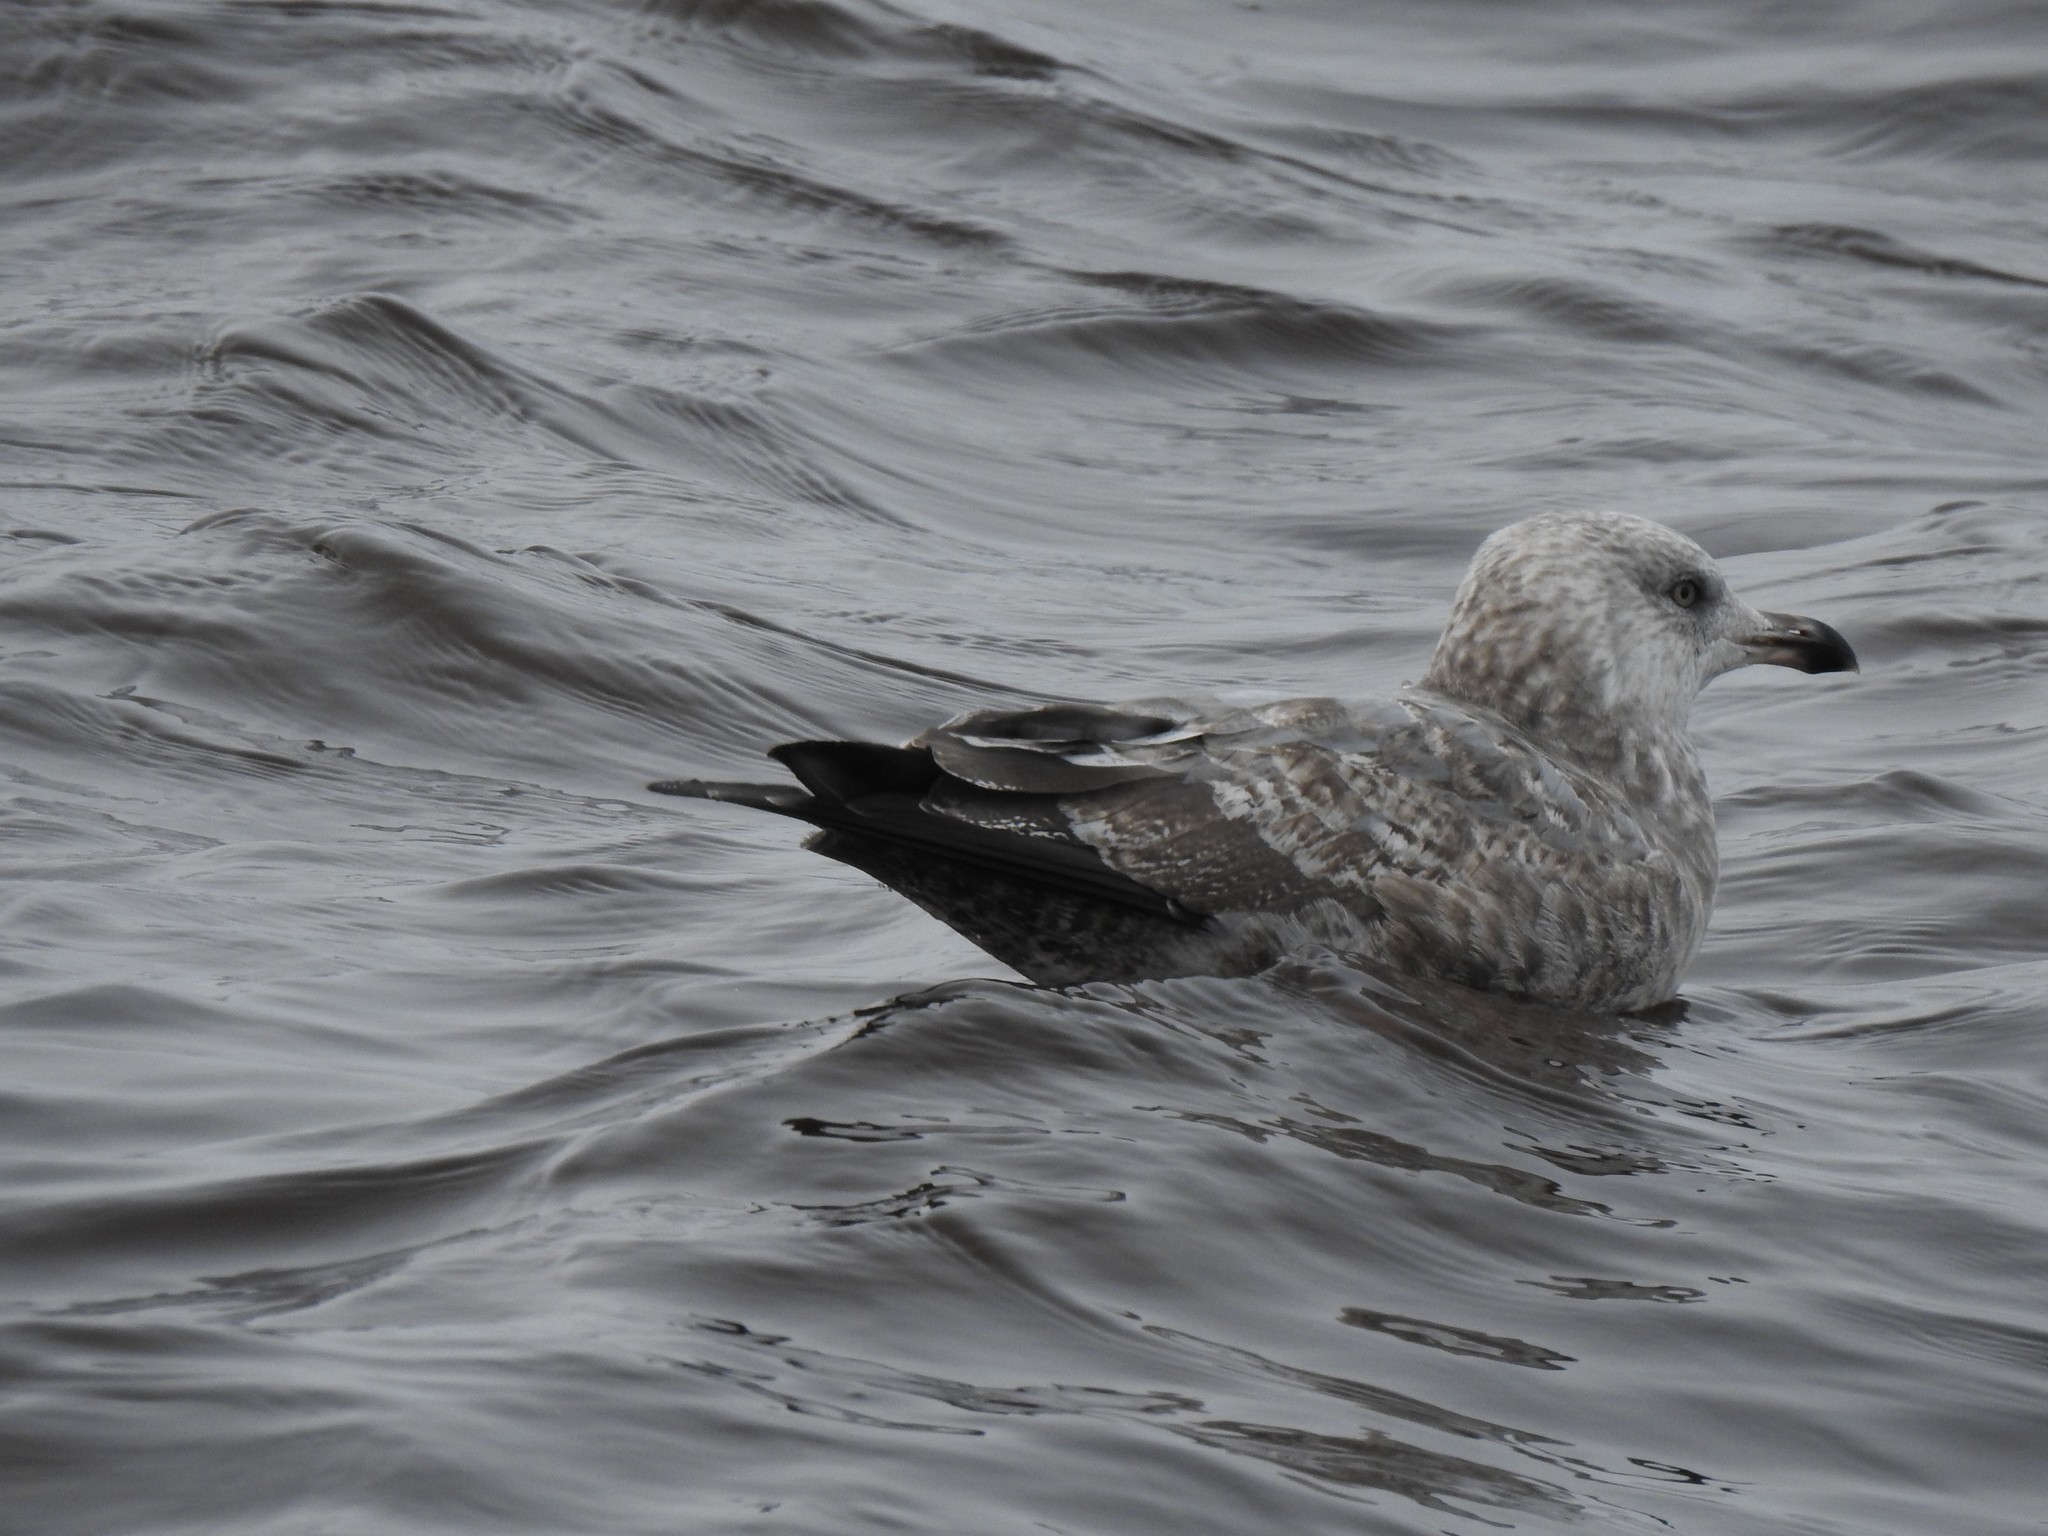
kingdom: Animalia
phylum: Chordata
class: Aves
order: Charadriiformes
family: Laridae
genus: Larus
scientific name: Larus smithsonianus
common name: American herring gull
